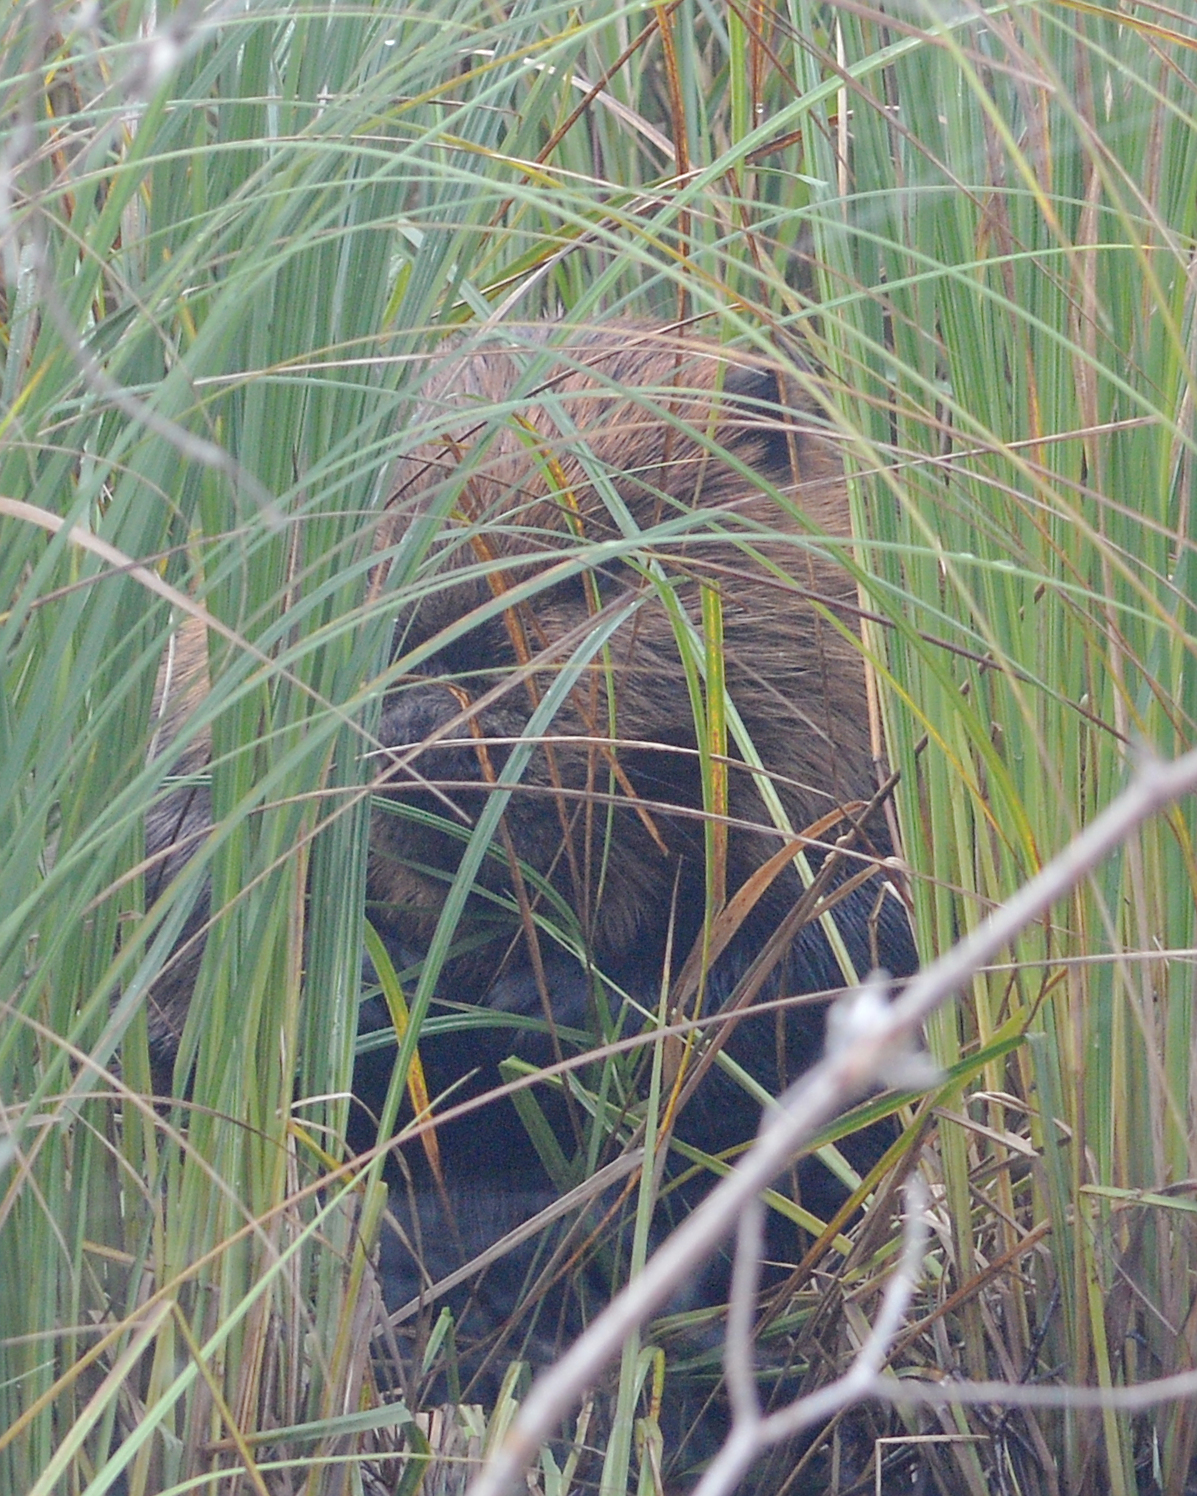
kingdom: Animalia
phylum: Chordata
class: Mammalia
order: Rodentia
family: Castoridae
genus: Castor
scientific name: Castor canadensis
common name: American beaver
